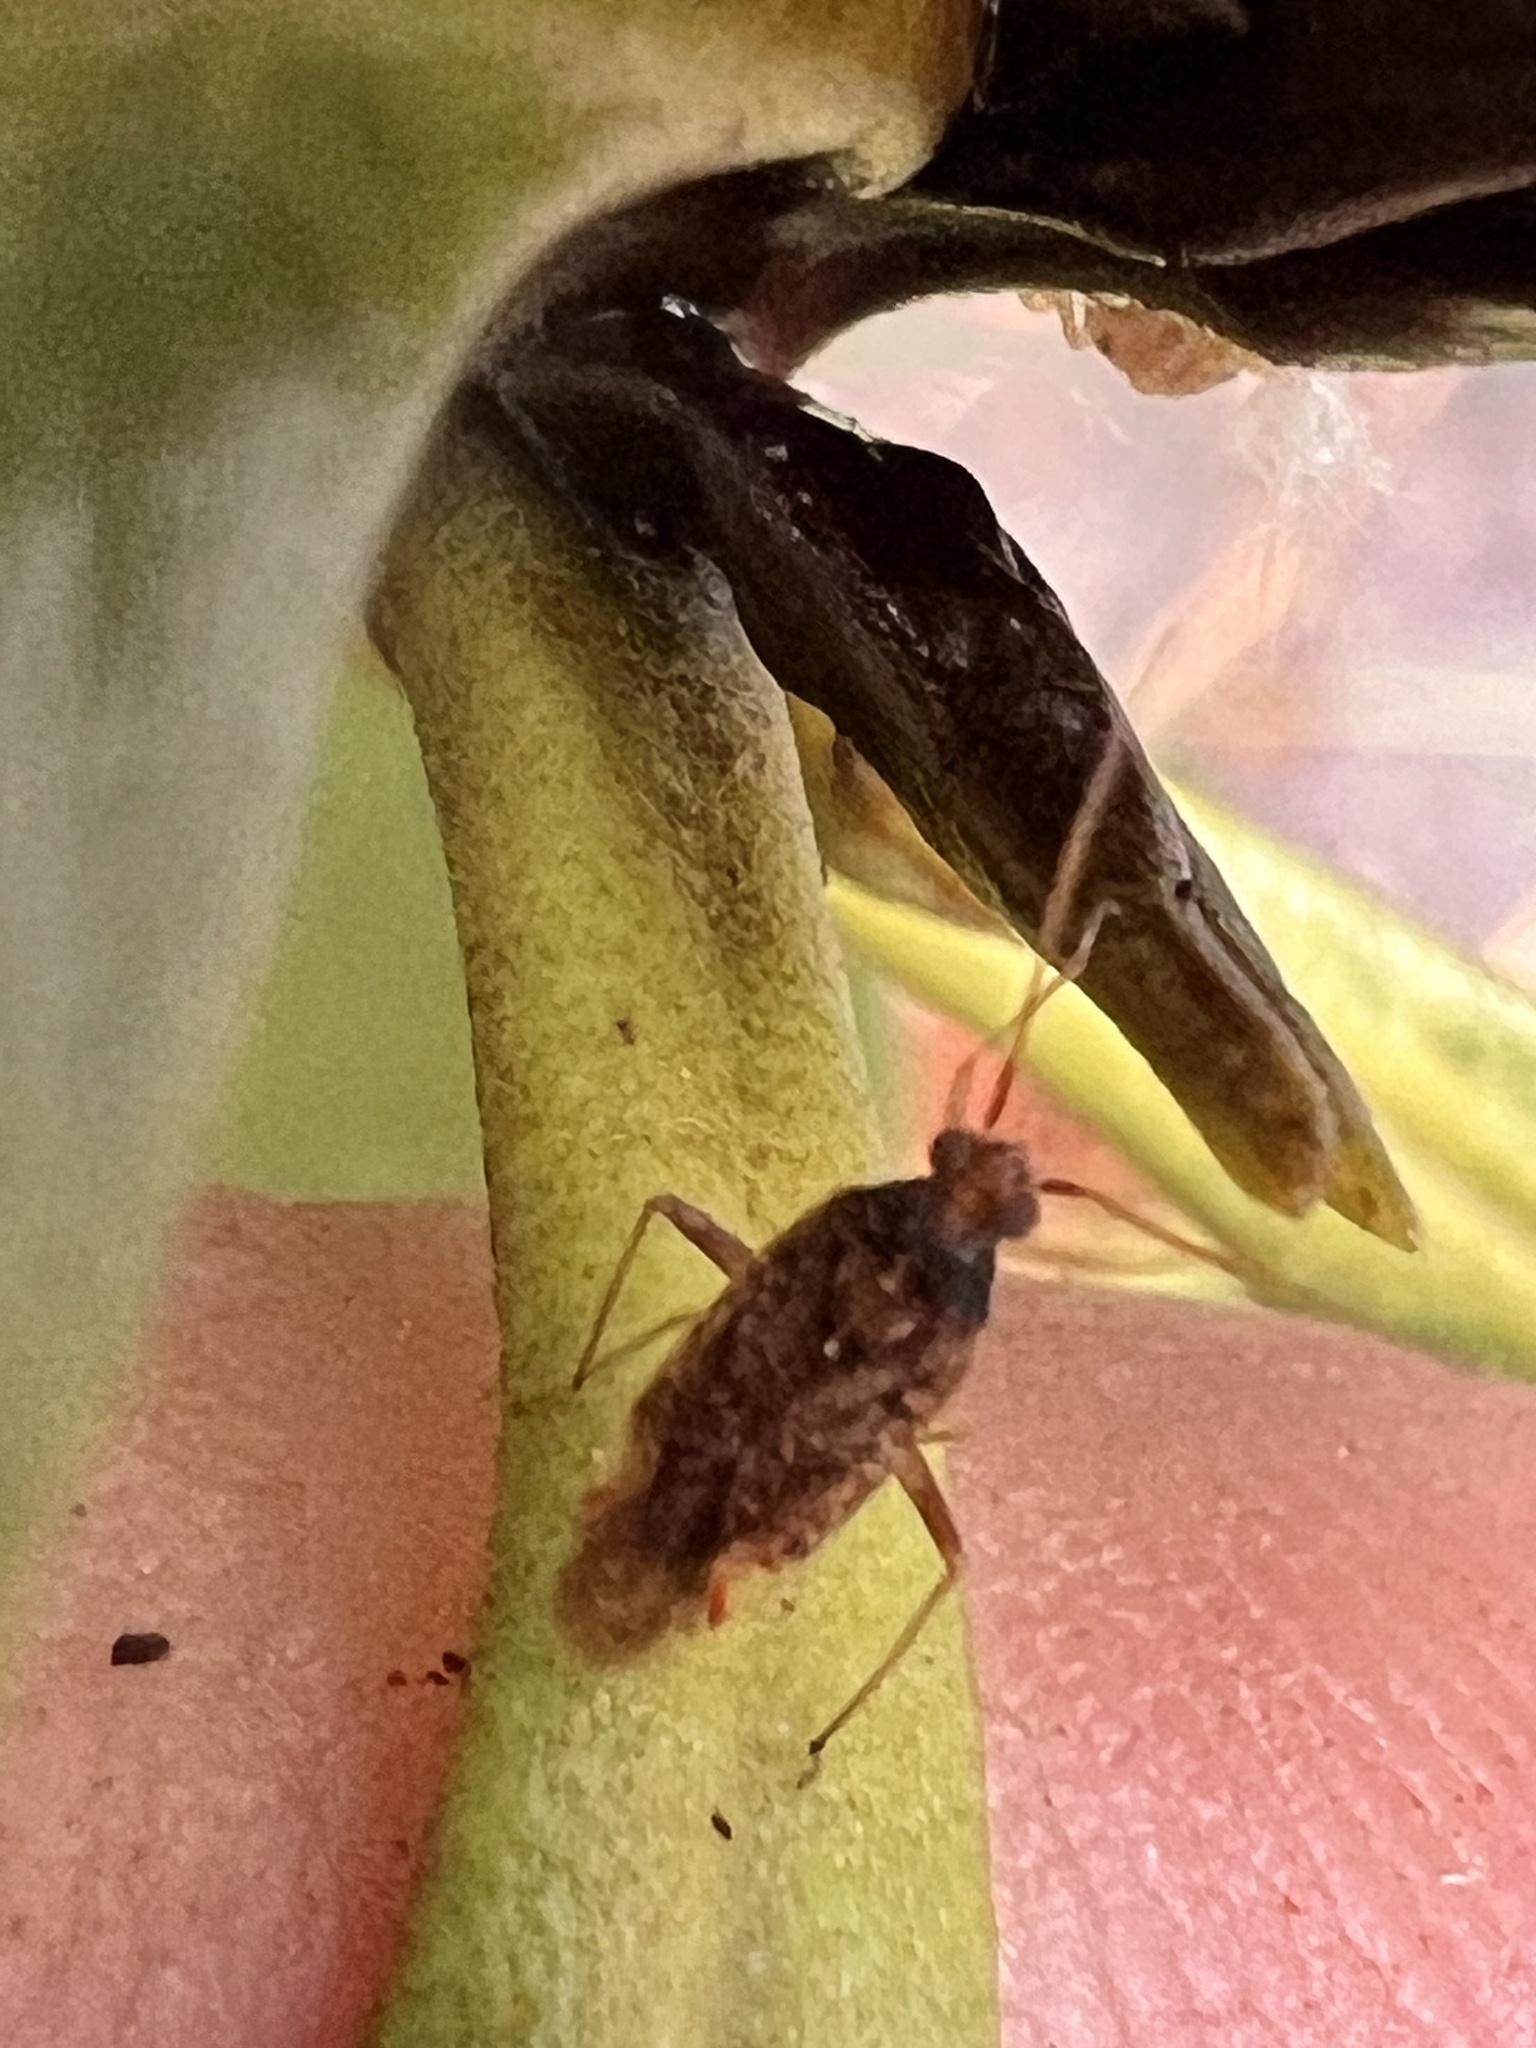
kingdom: Animalia
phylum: Arthropoda
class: Insecta
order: Hemiptera
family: Miridae
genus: Chinamiris
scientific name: Chinamiris aurantiacus
